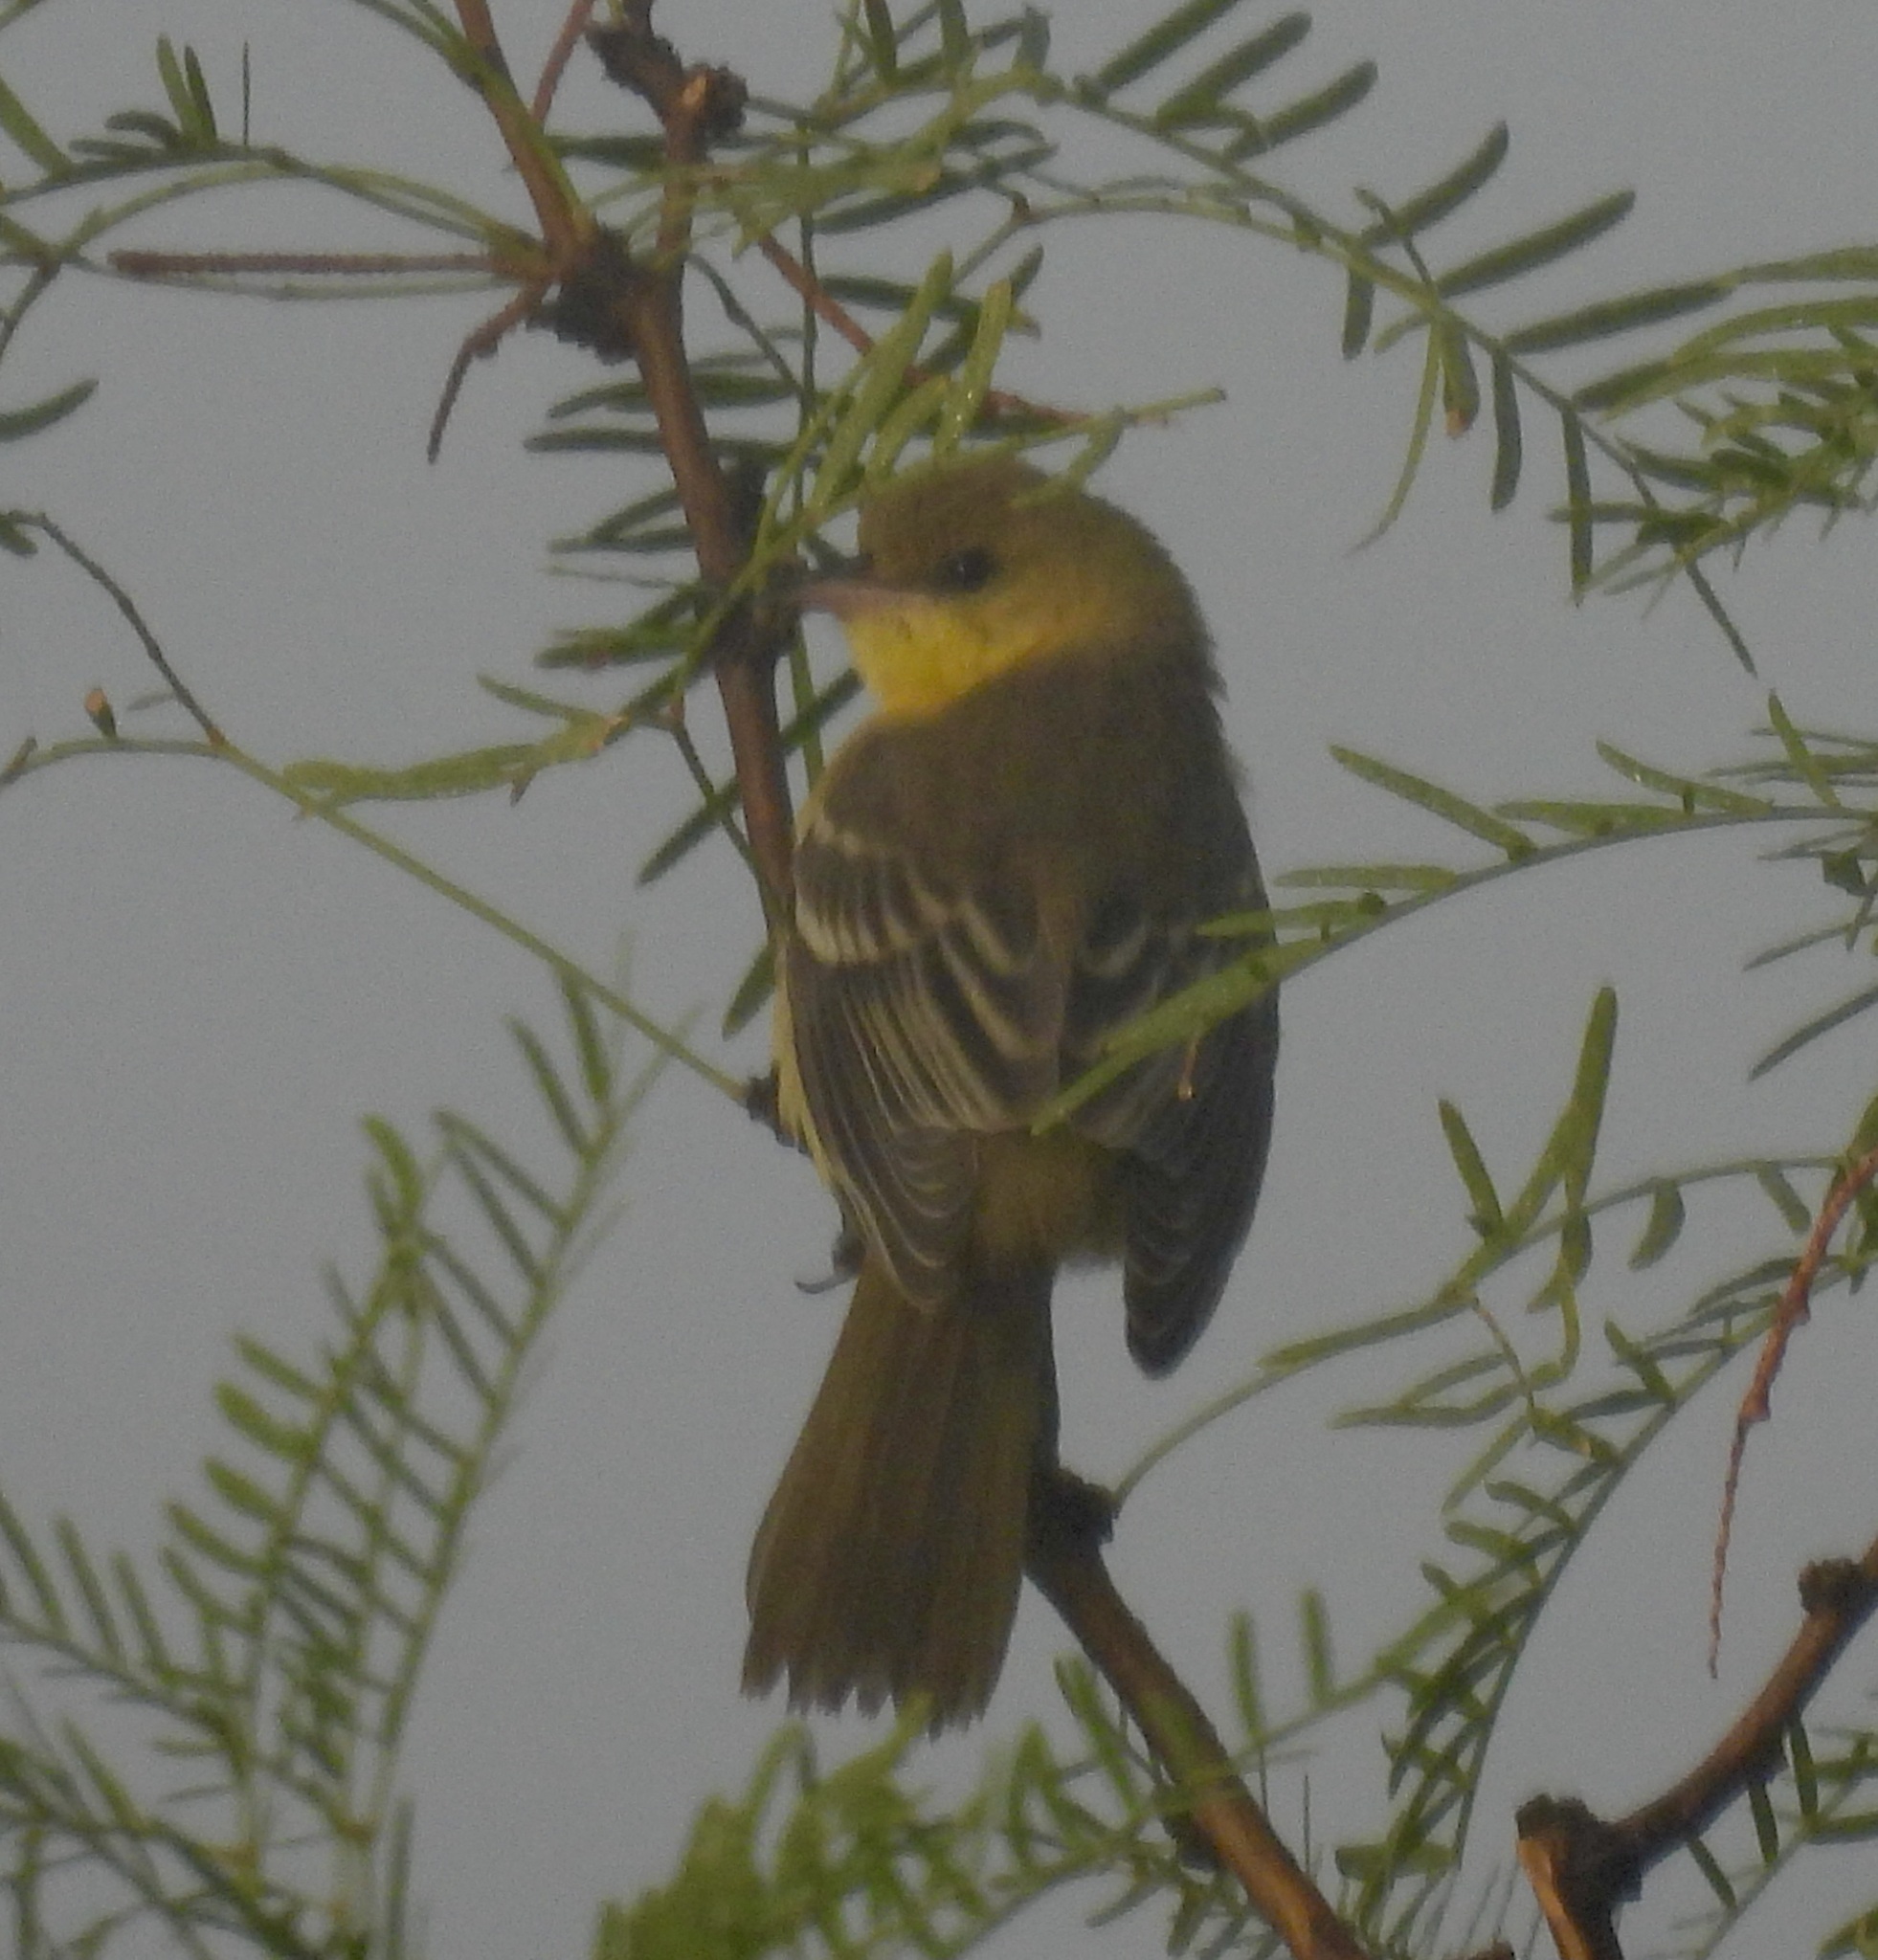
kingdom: Animalia
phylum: Chordata
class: Aves
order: Passeriformes
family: Icteridae
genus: Icterus
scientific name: Icterus spurius
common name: Orchard oriole
